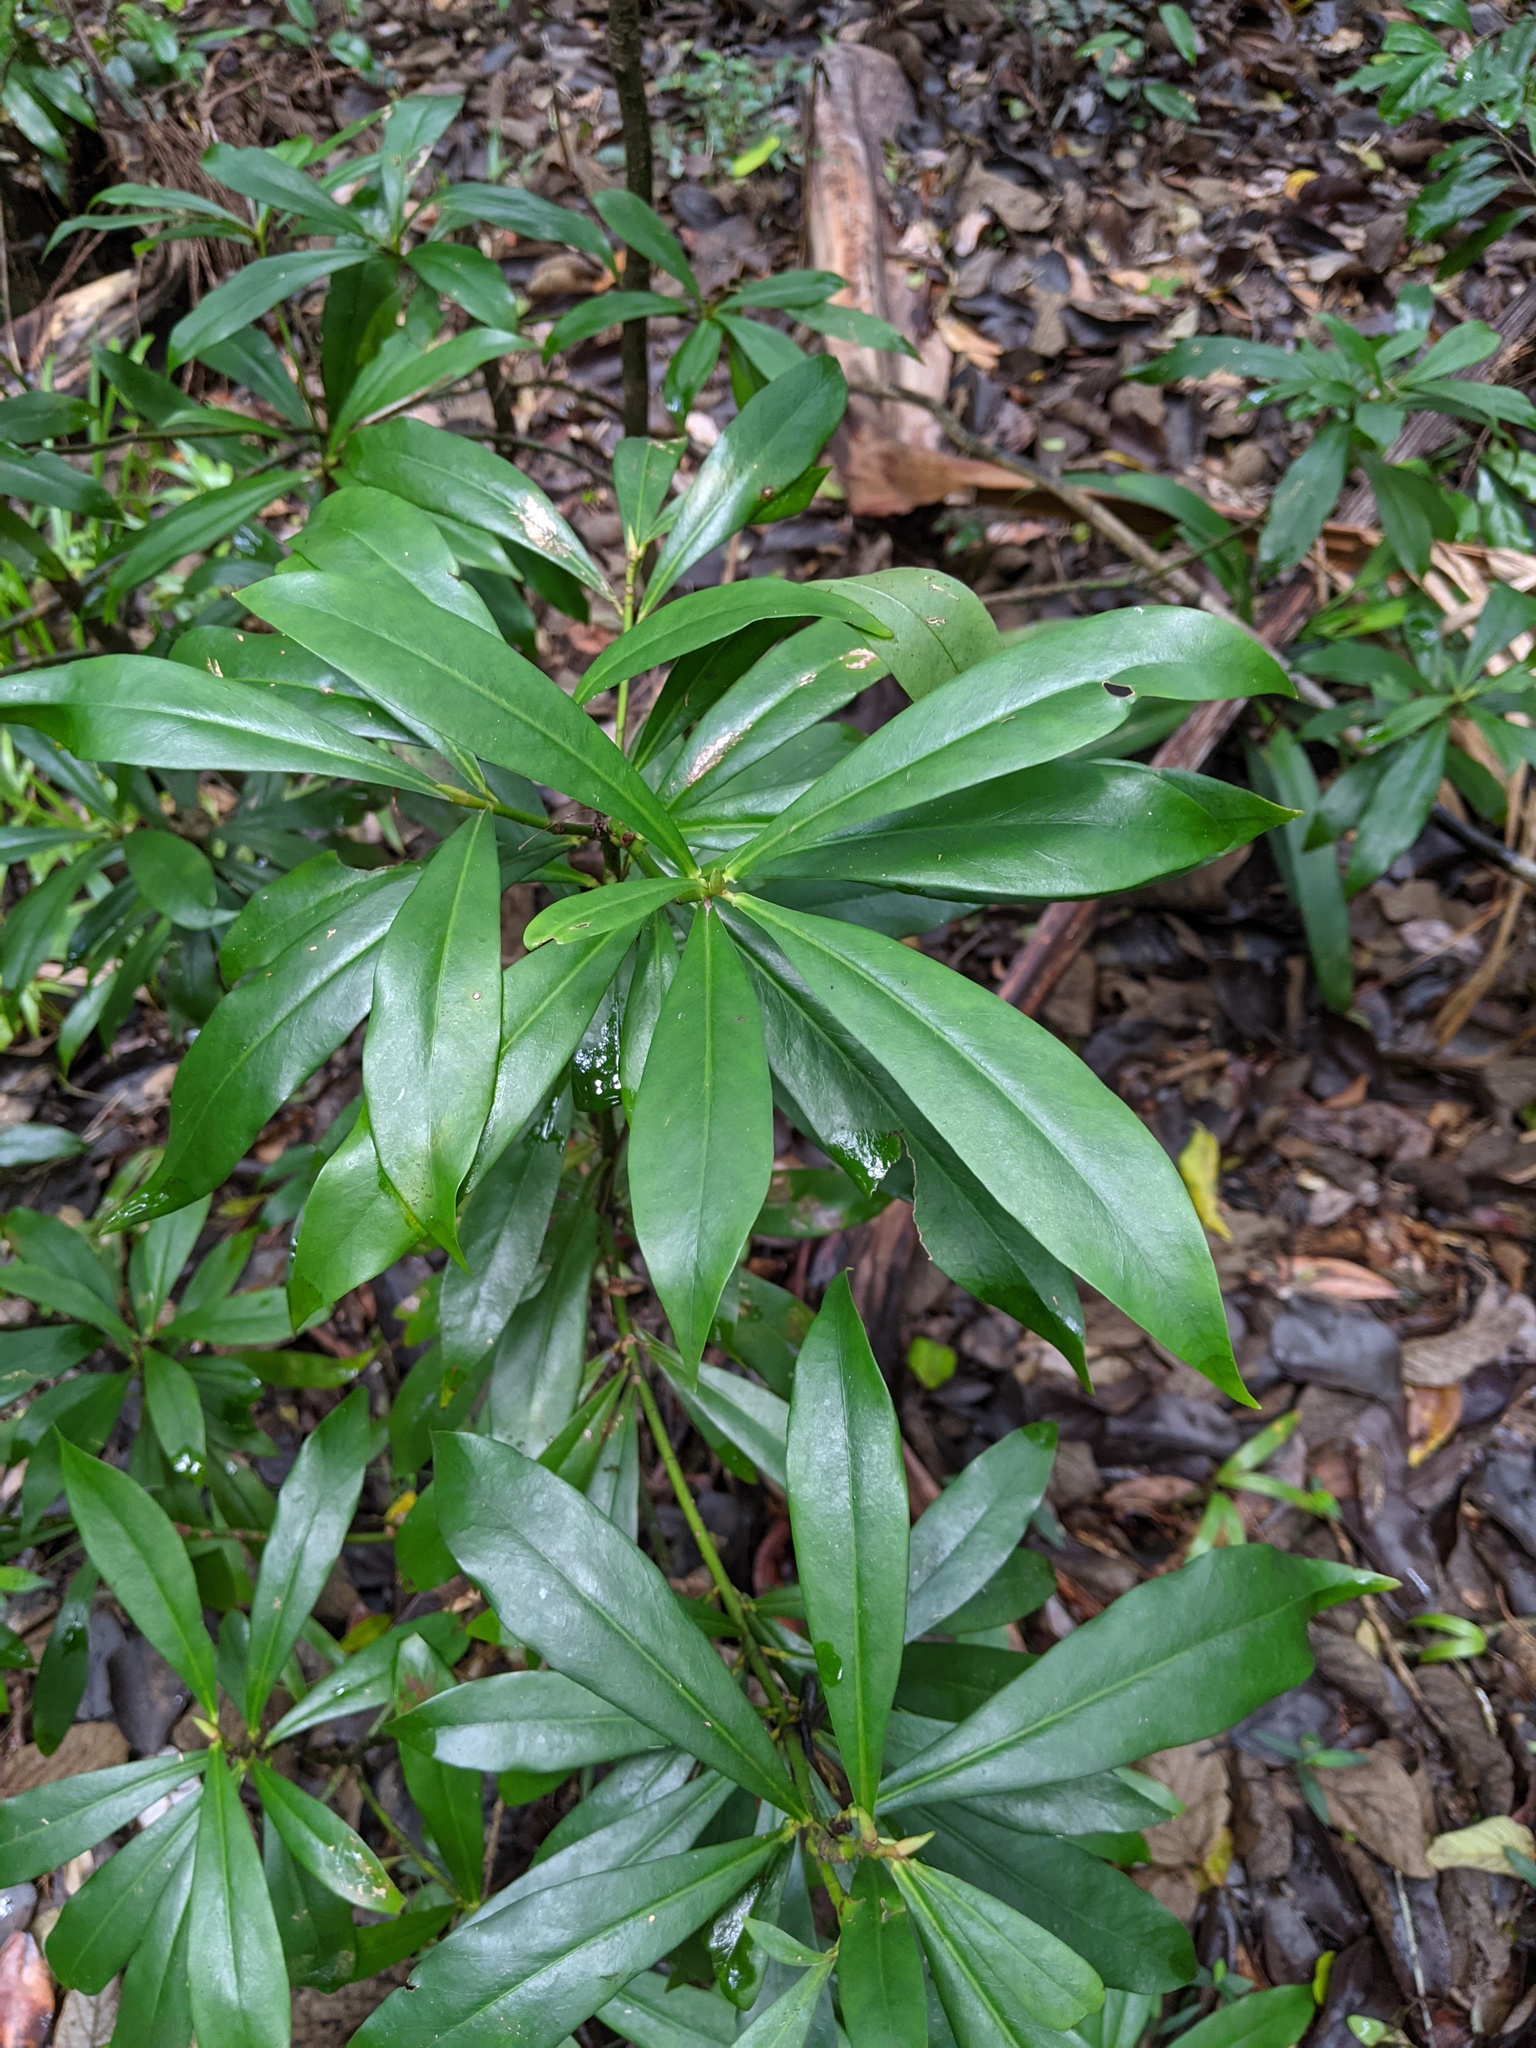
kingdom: Plantae
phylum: Tracheophyta
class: Magnoliopsida
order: Canellales
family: Winteraceae
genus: Drimys
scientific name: Drimys insipida
